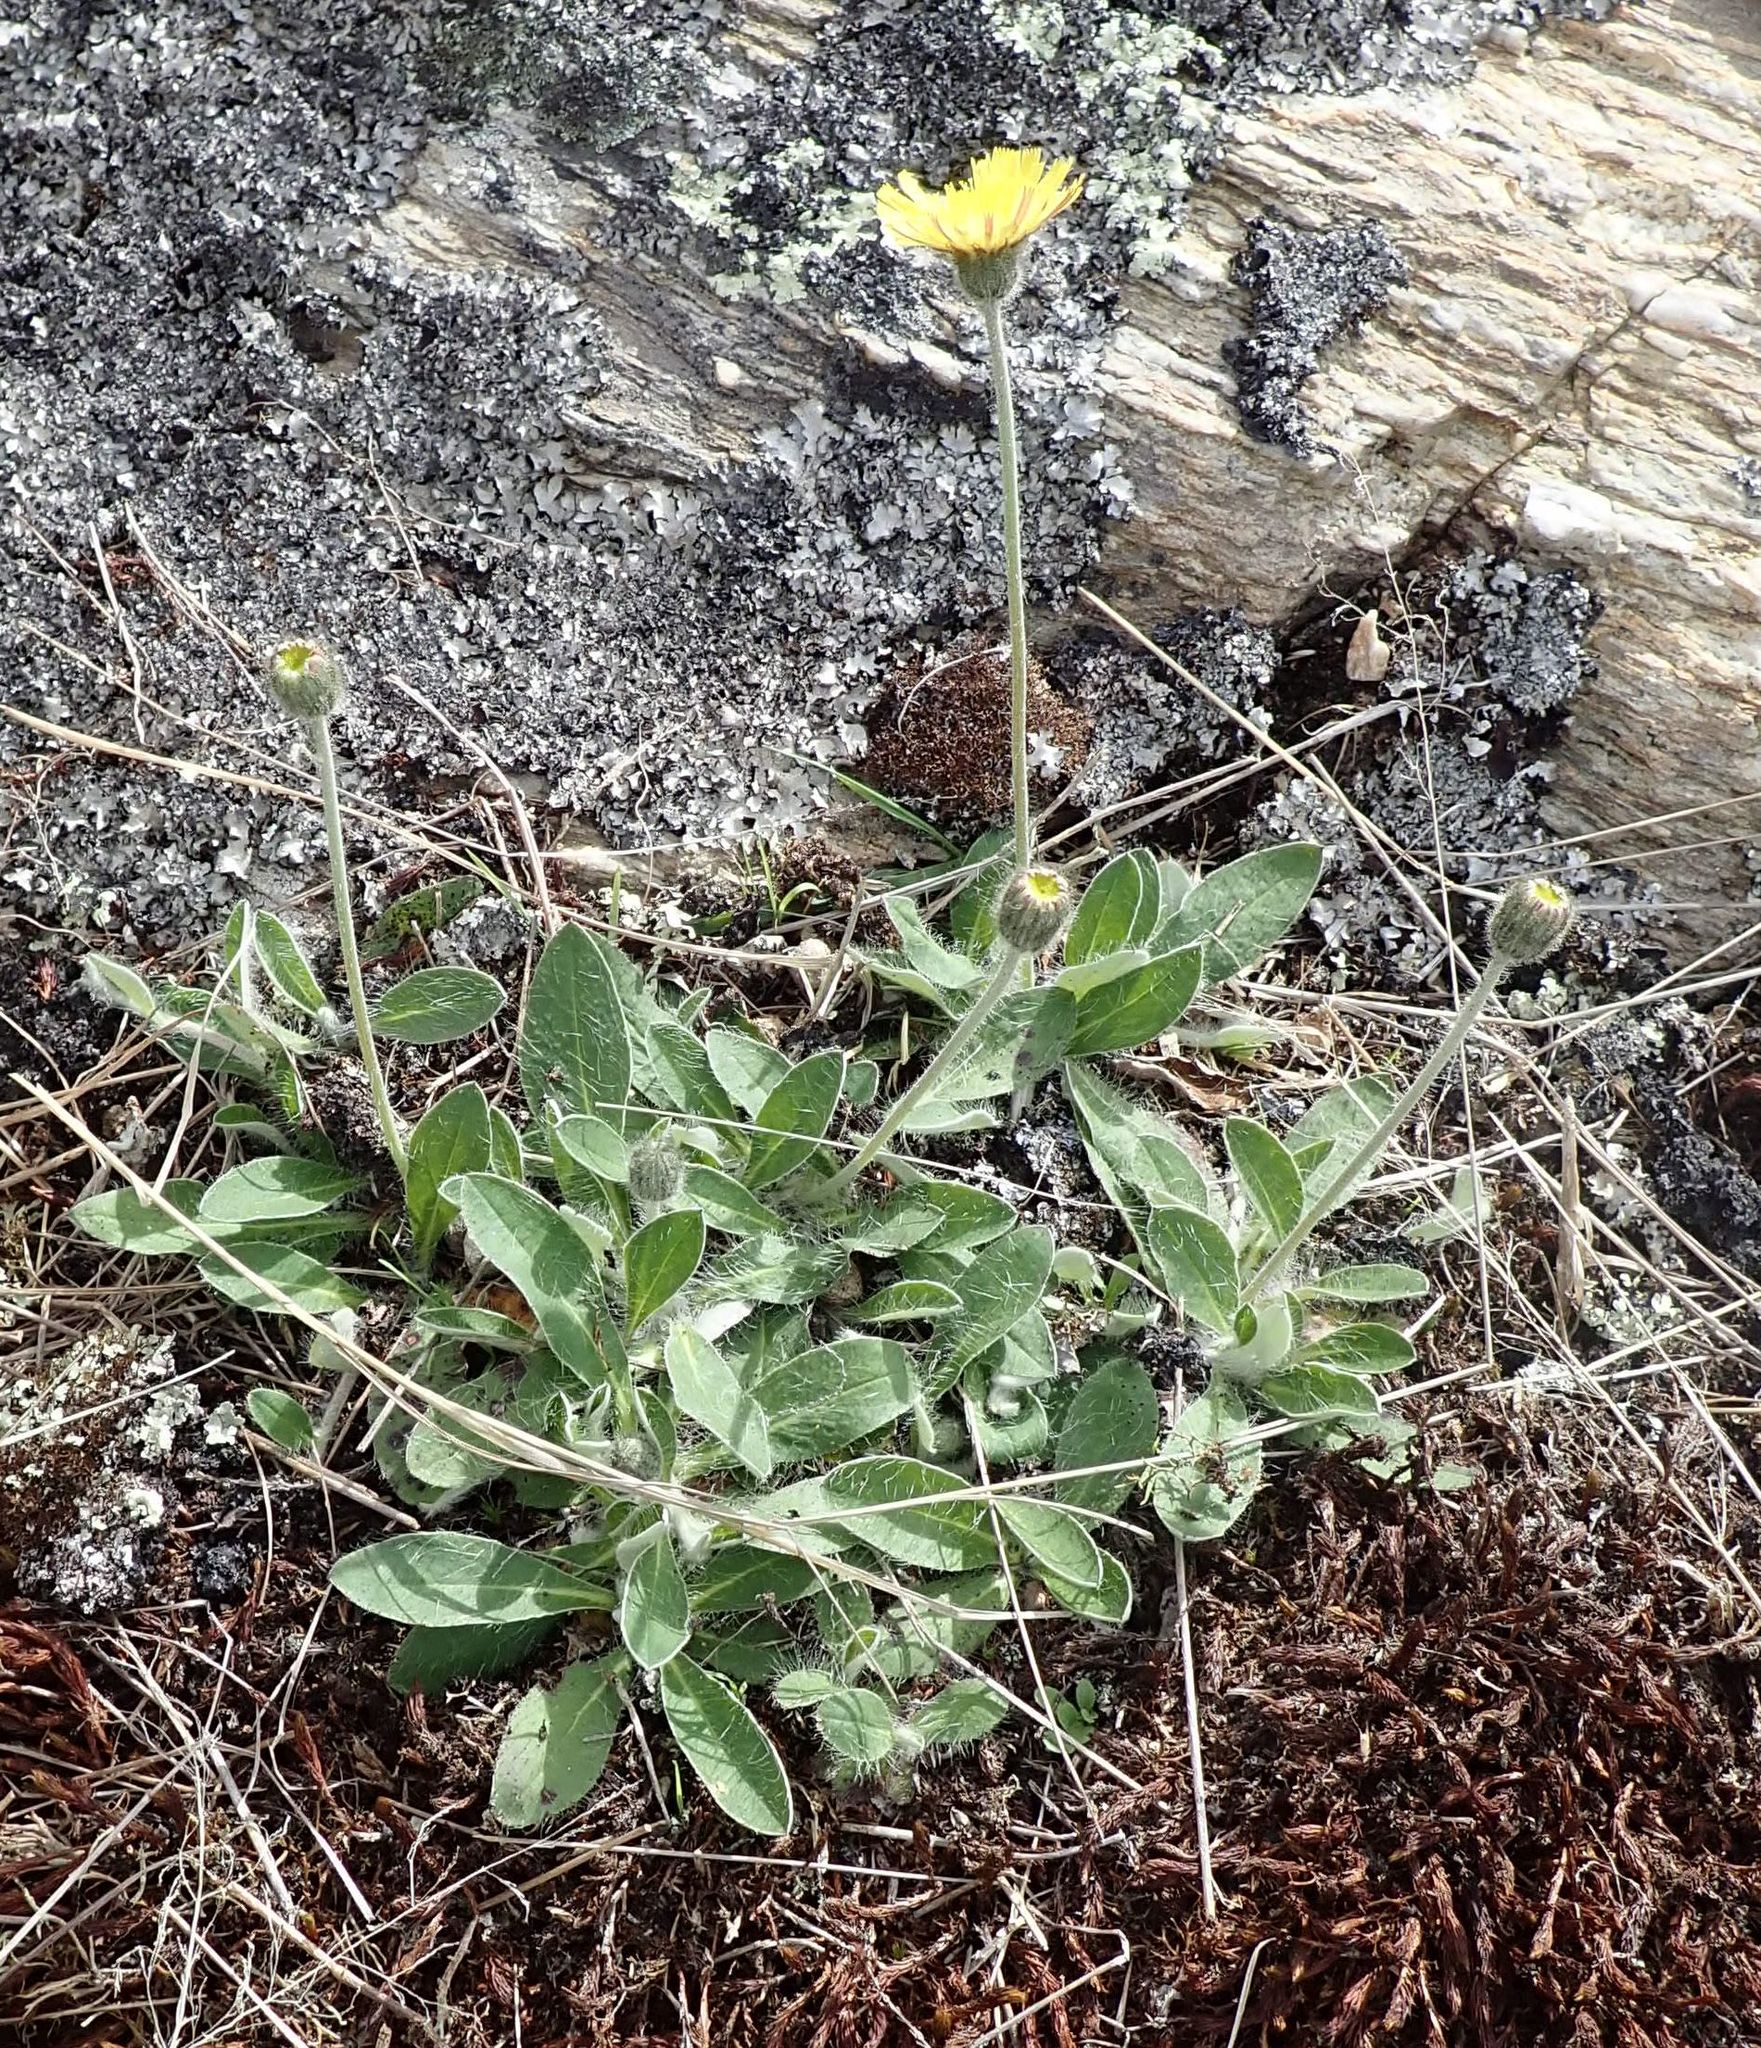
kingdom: Plantae
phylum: Tracheophyta
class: Magnoliopsida
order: Asterales
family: Asteraceae
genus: Pilosella
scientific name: Pilosella officinarum
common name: Mouse-ear hawkweed
